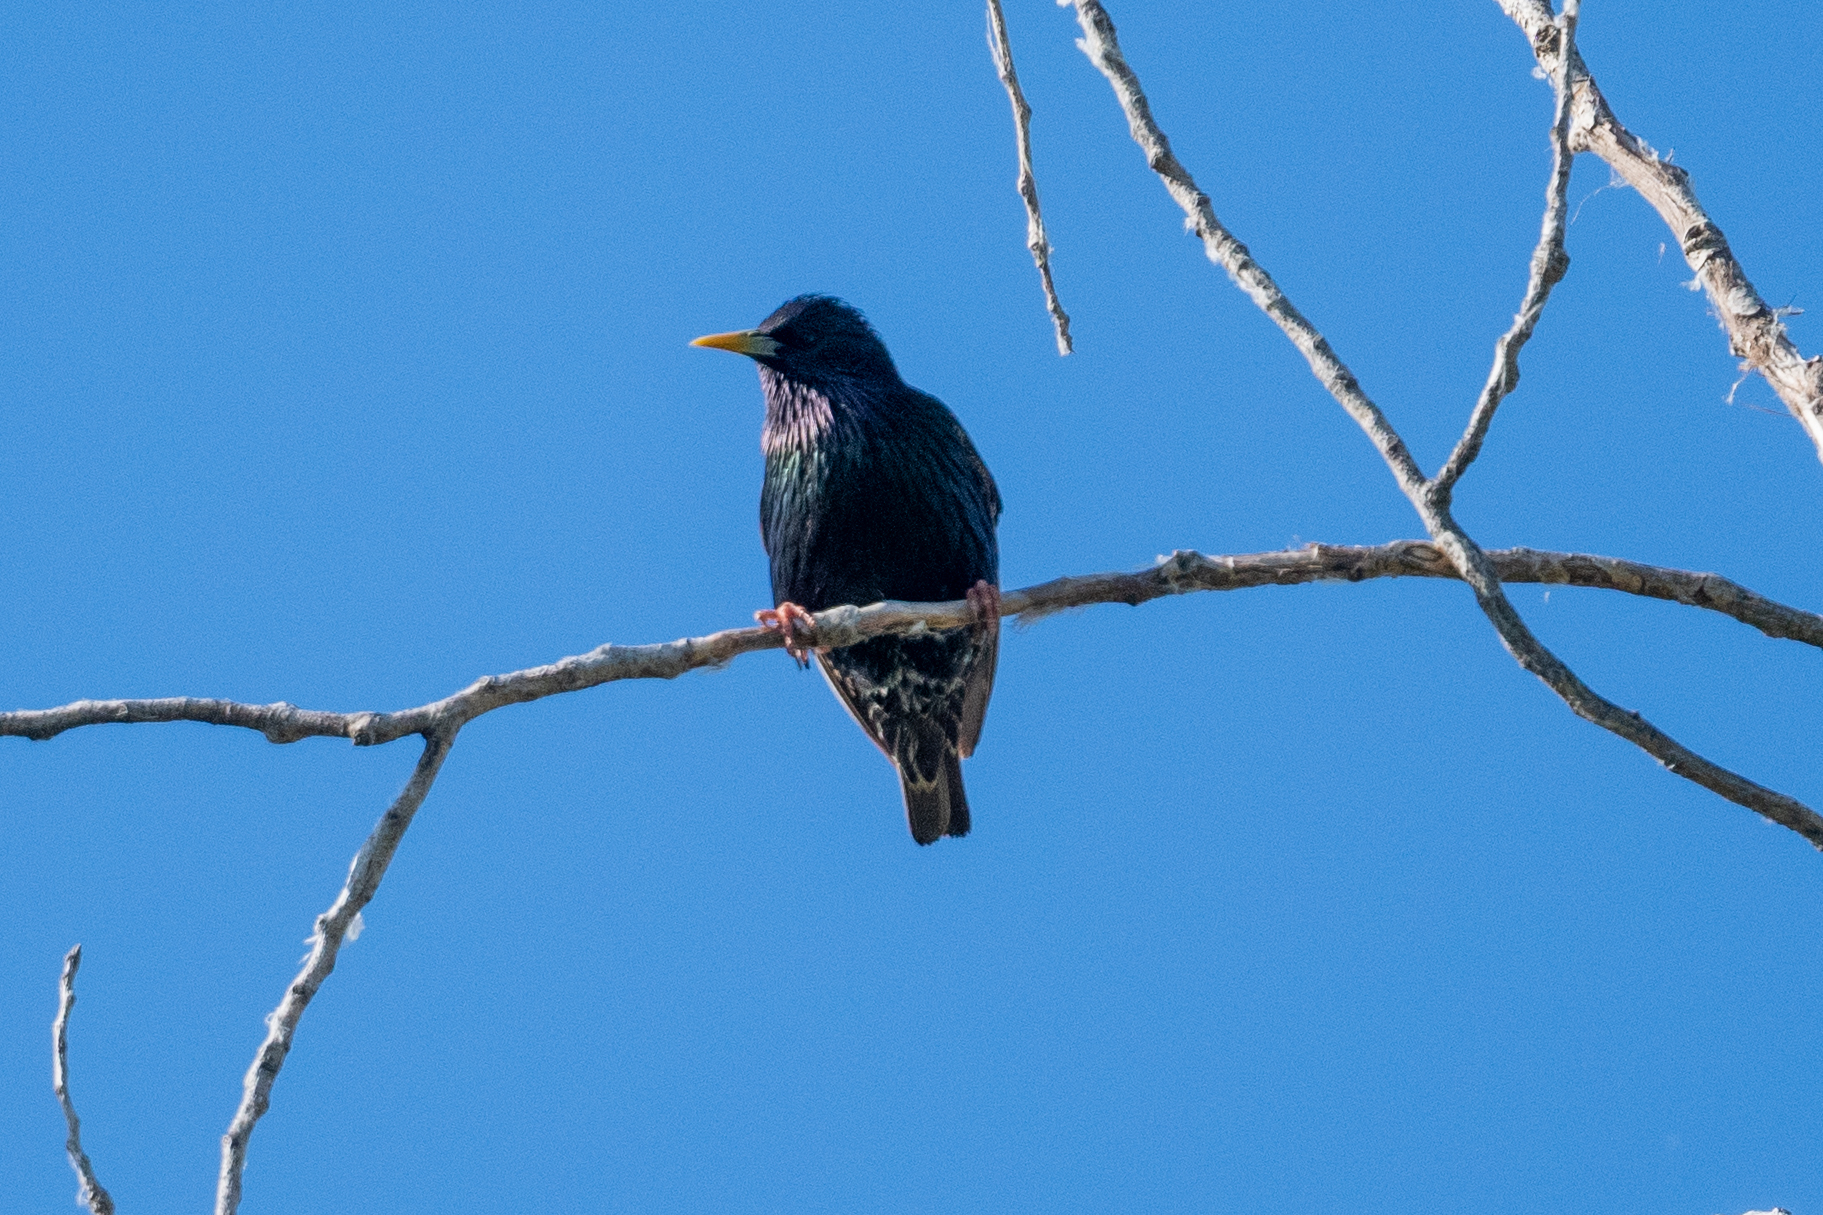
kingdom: Animalia
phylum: Chordata
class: Aves
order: Passeriformes
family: Sturnidae
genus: Sturnus
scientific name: Sturnus vulgaris
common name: Common starling
